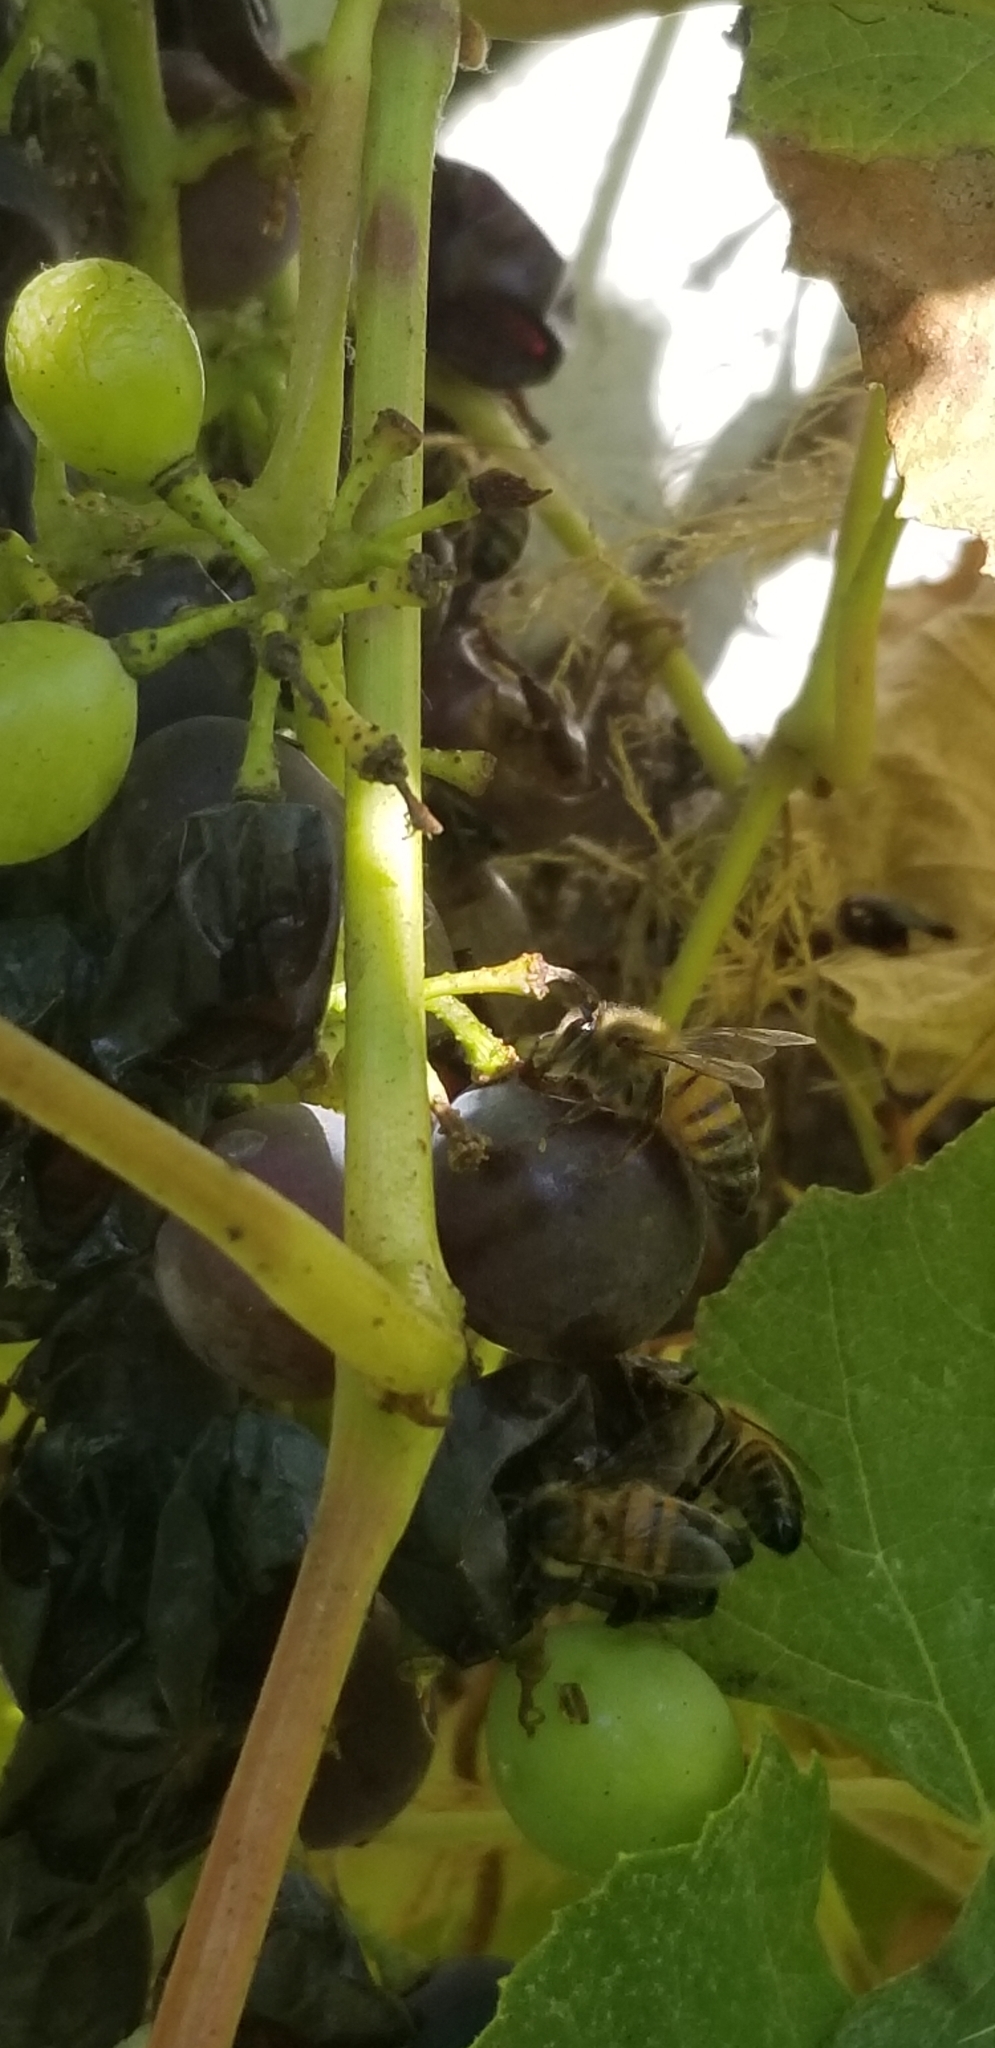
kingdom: Animalia
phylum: Arthropoda
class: Insecta
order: Hymenoptera
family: Apidae
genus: Apis
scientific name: Apis mellifera
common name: Honey bee
